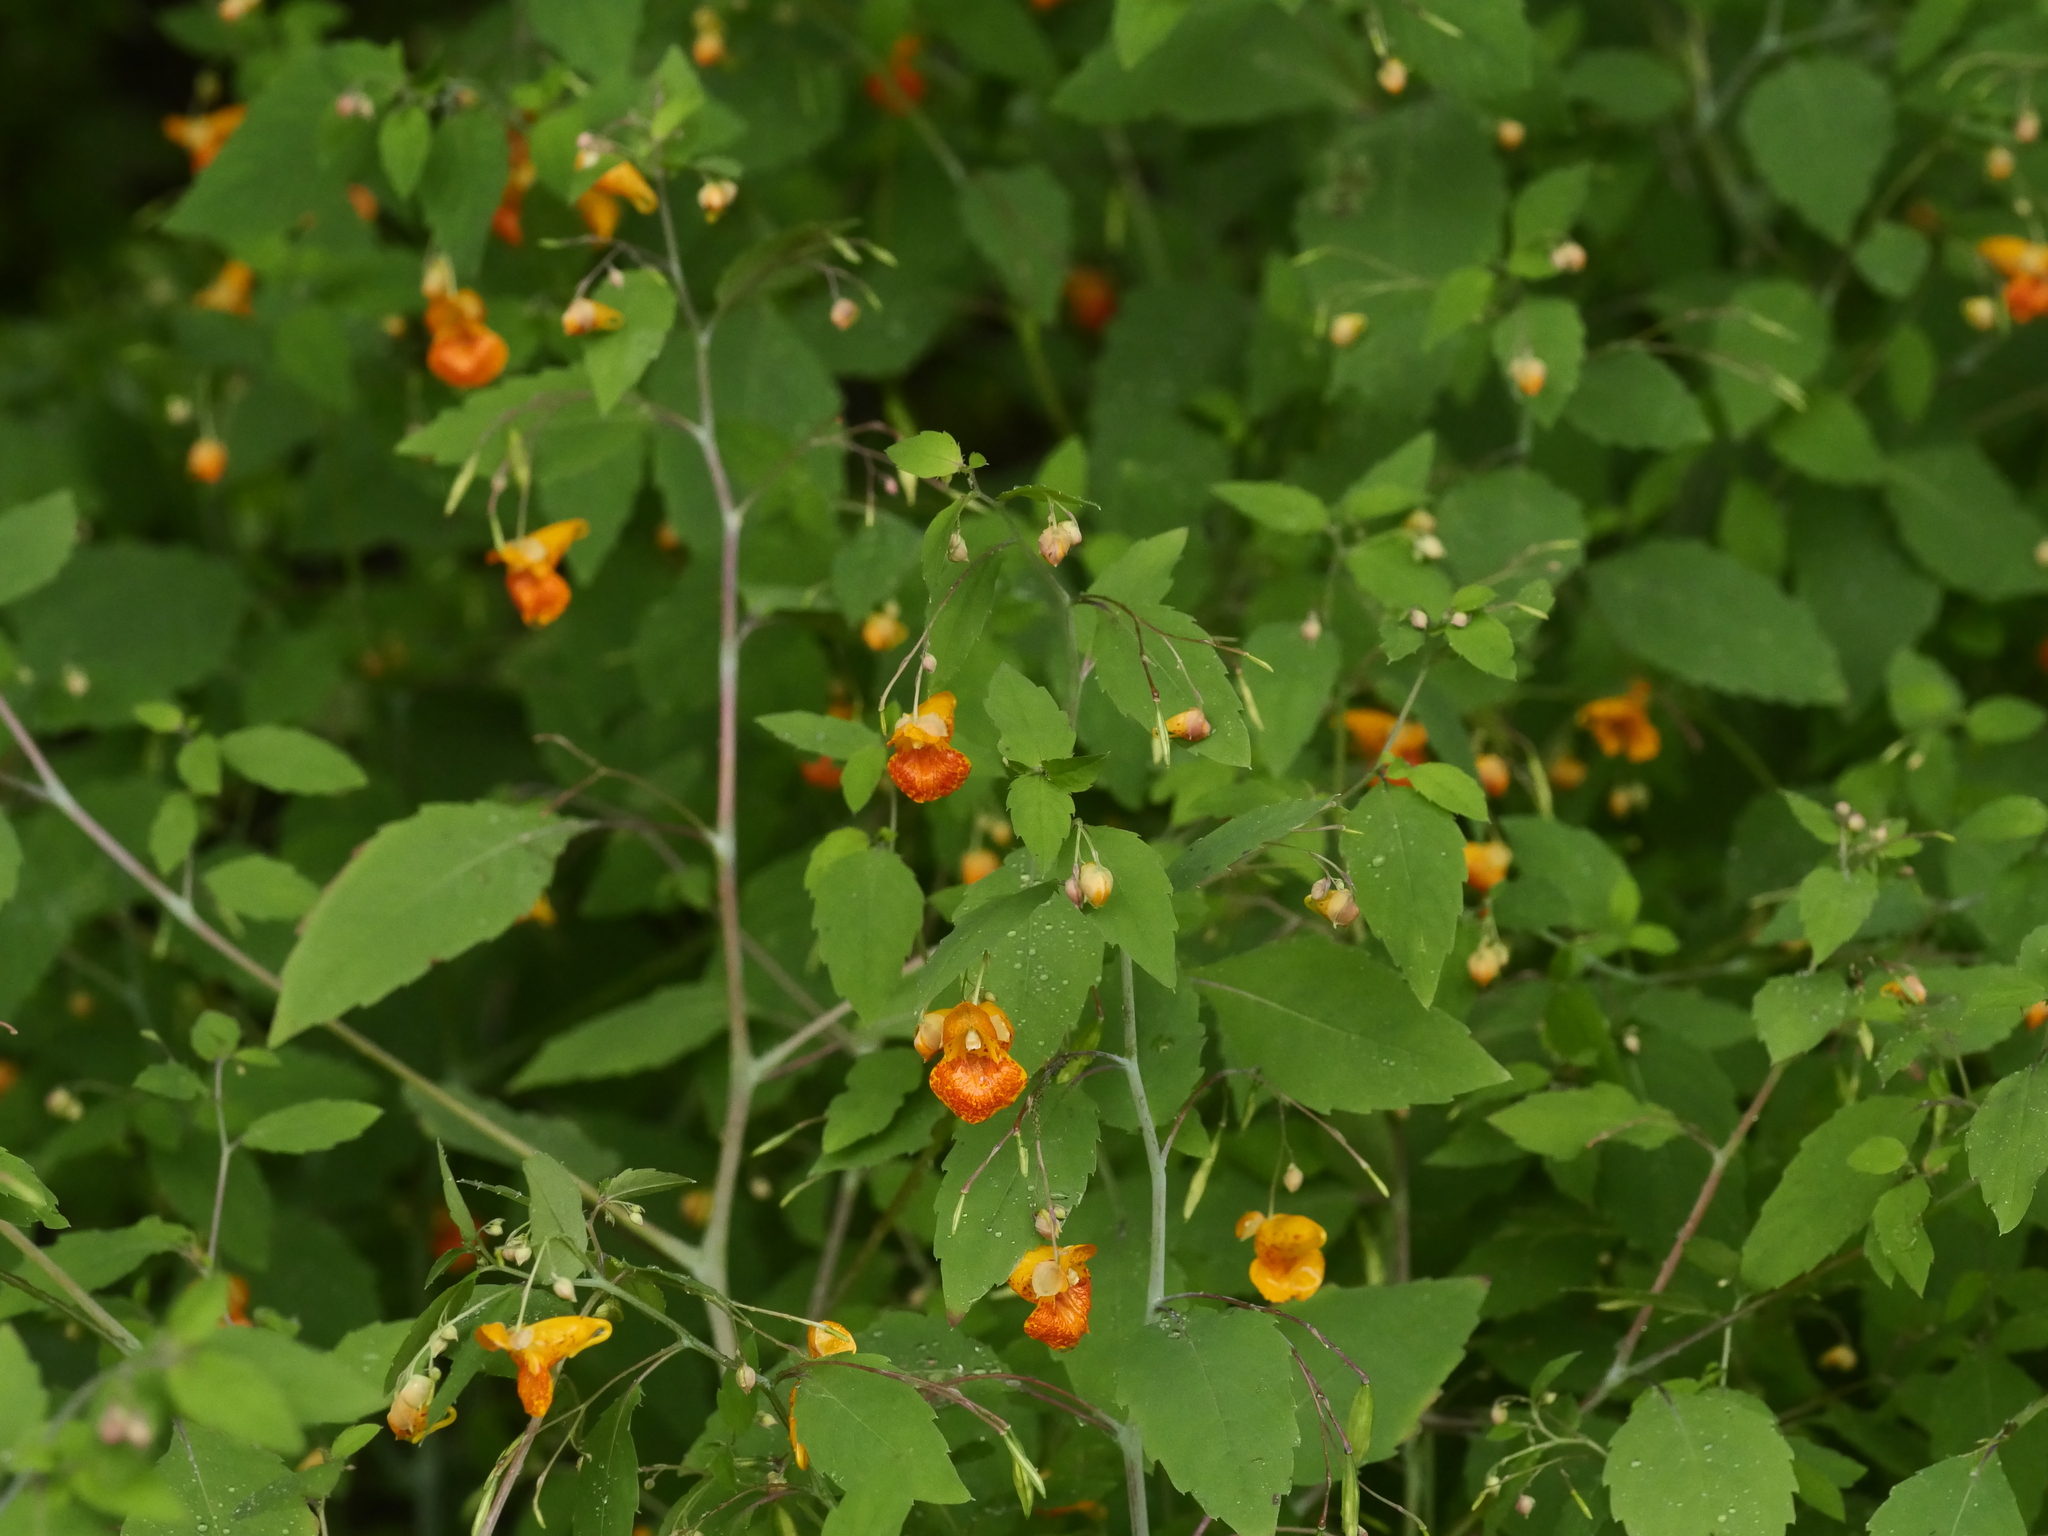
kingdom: Plantae
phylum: Tracheophyta
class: Magnoliopsida
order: Ericales
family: Balsaminaceae
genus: Impatiens
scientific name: Impatiens capensis
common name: Orange balsam
